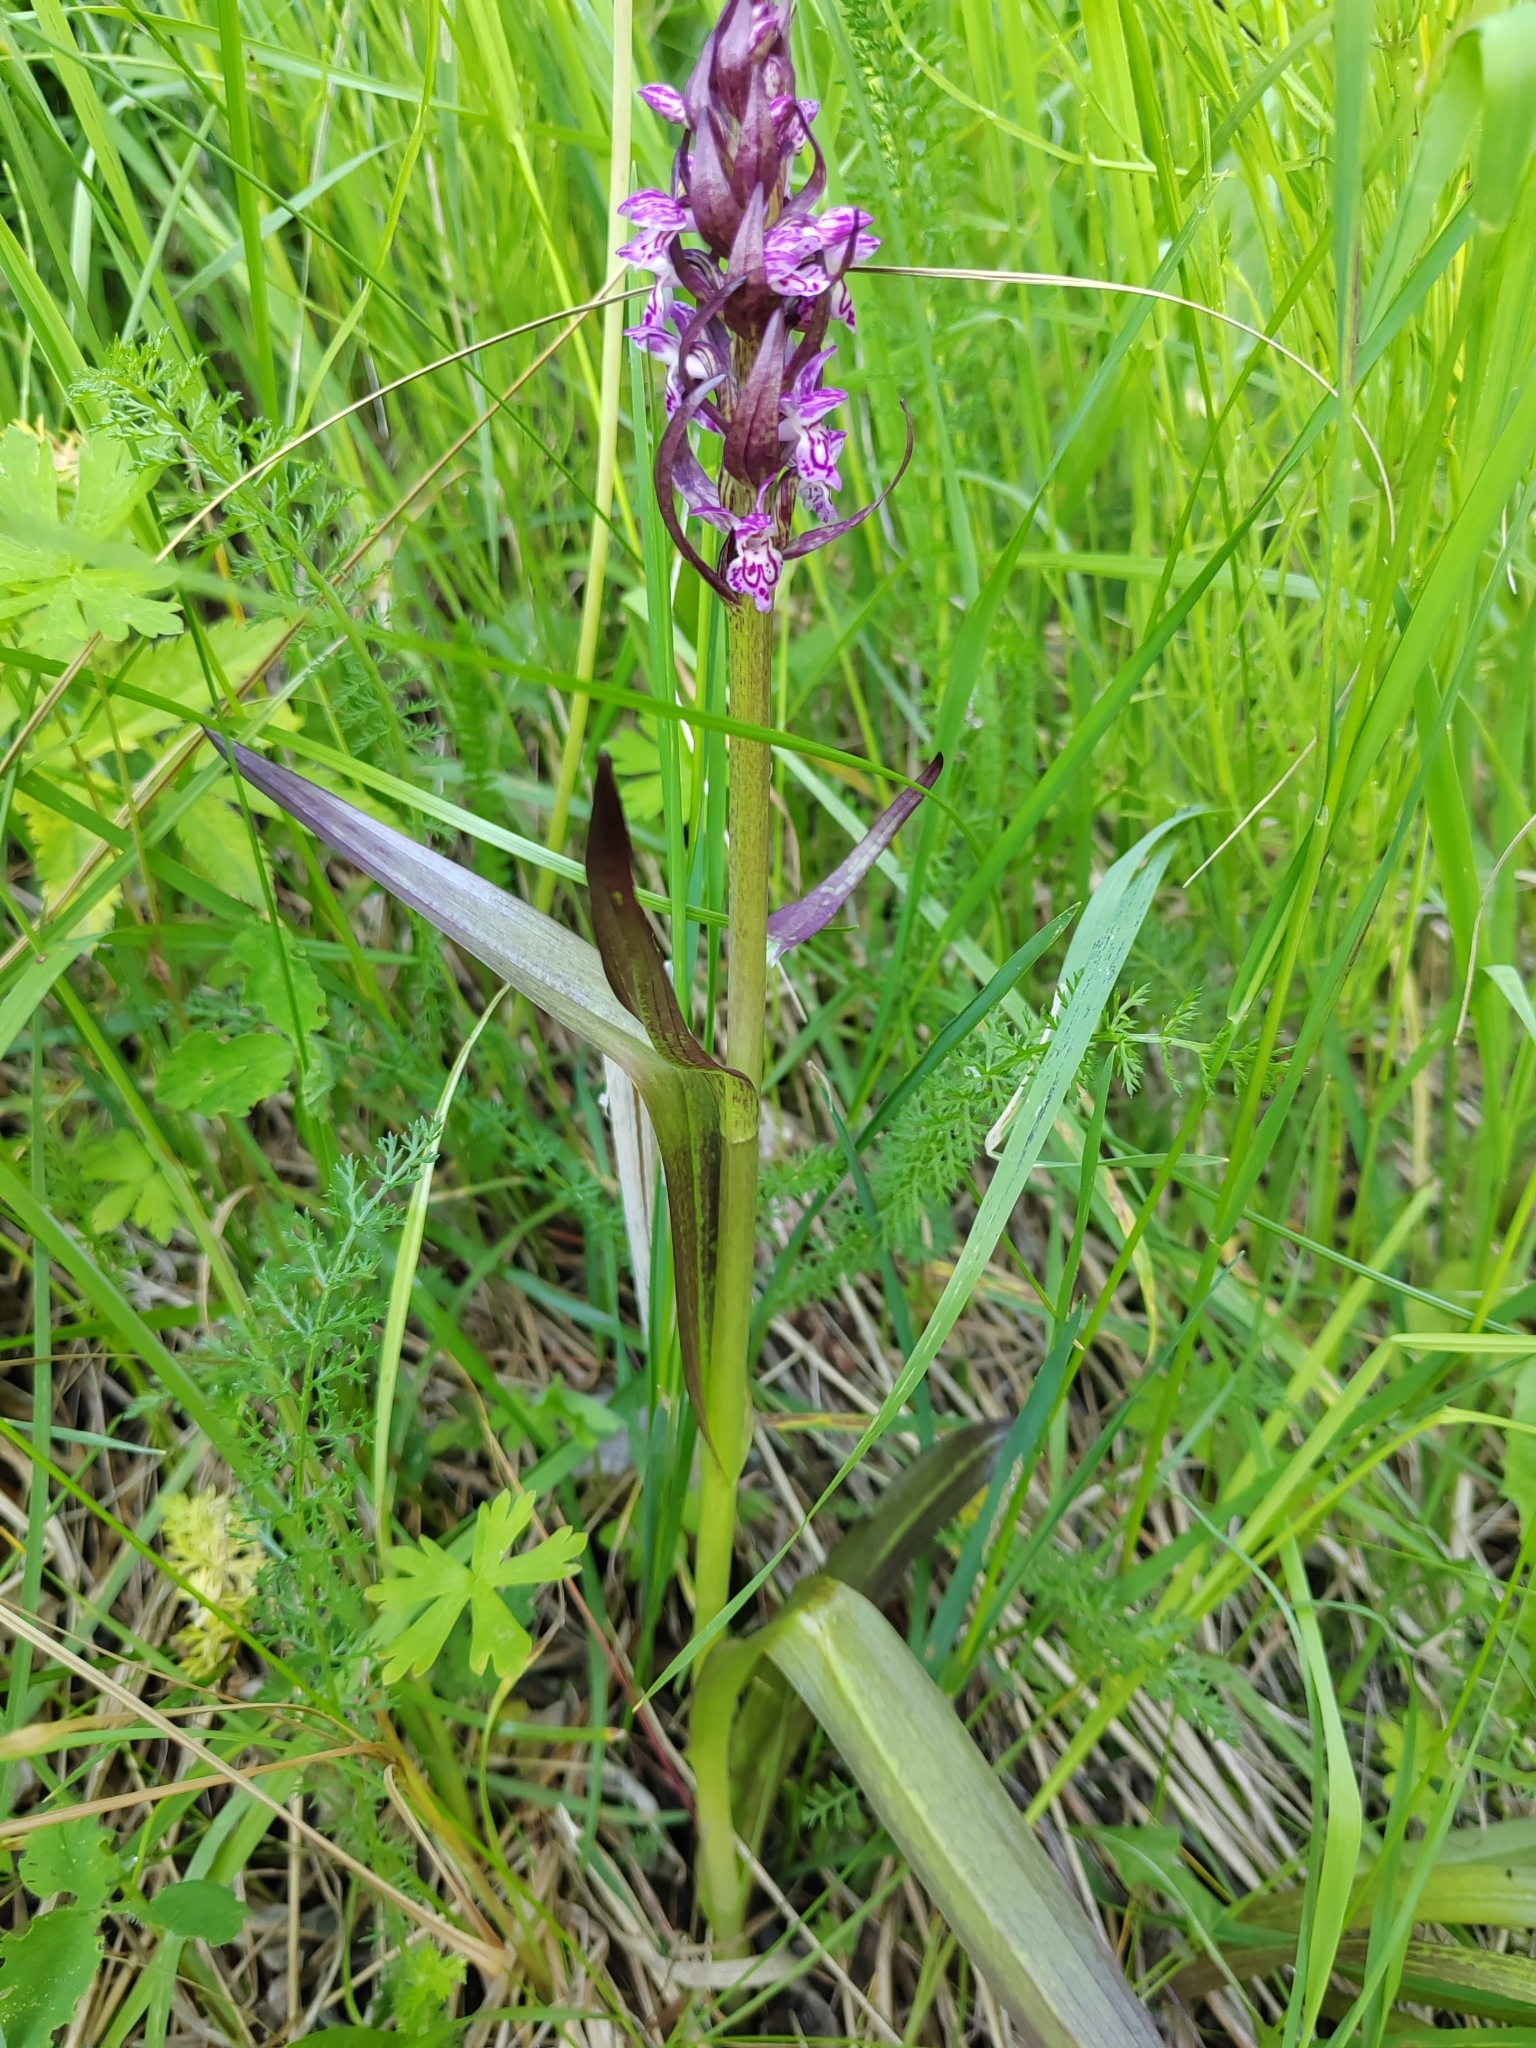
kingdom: Plantae
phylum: Tracheophyta
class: Liliopsida
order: Asparagales
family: Orchidaceae
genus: Dactylorhiza
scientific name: Dactylorhiza incarnata
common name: Early marsh-orchid
